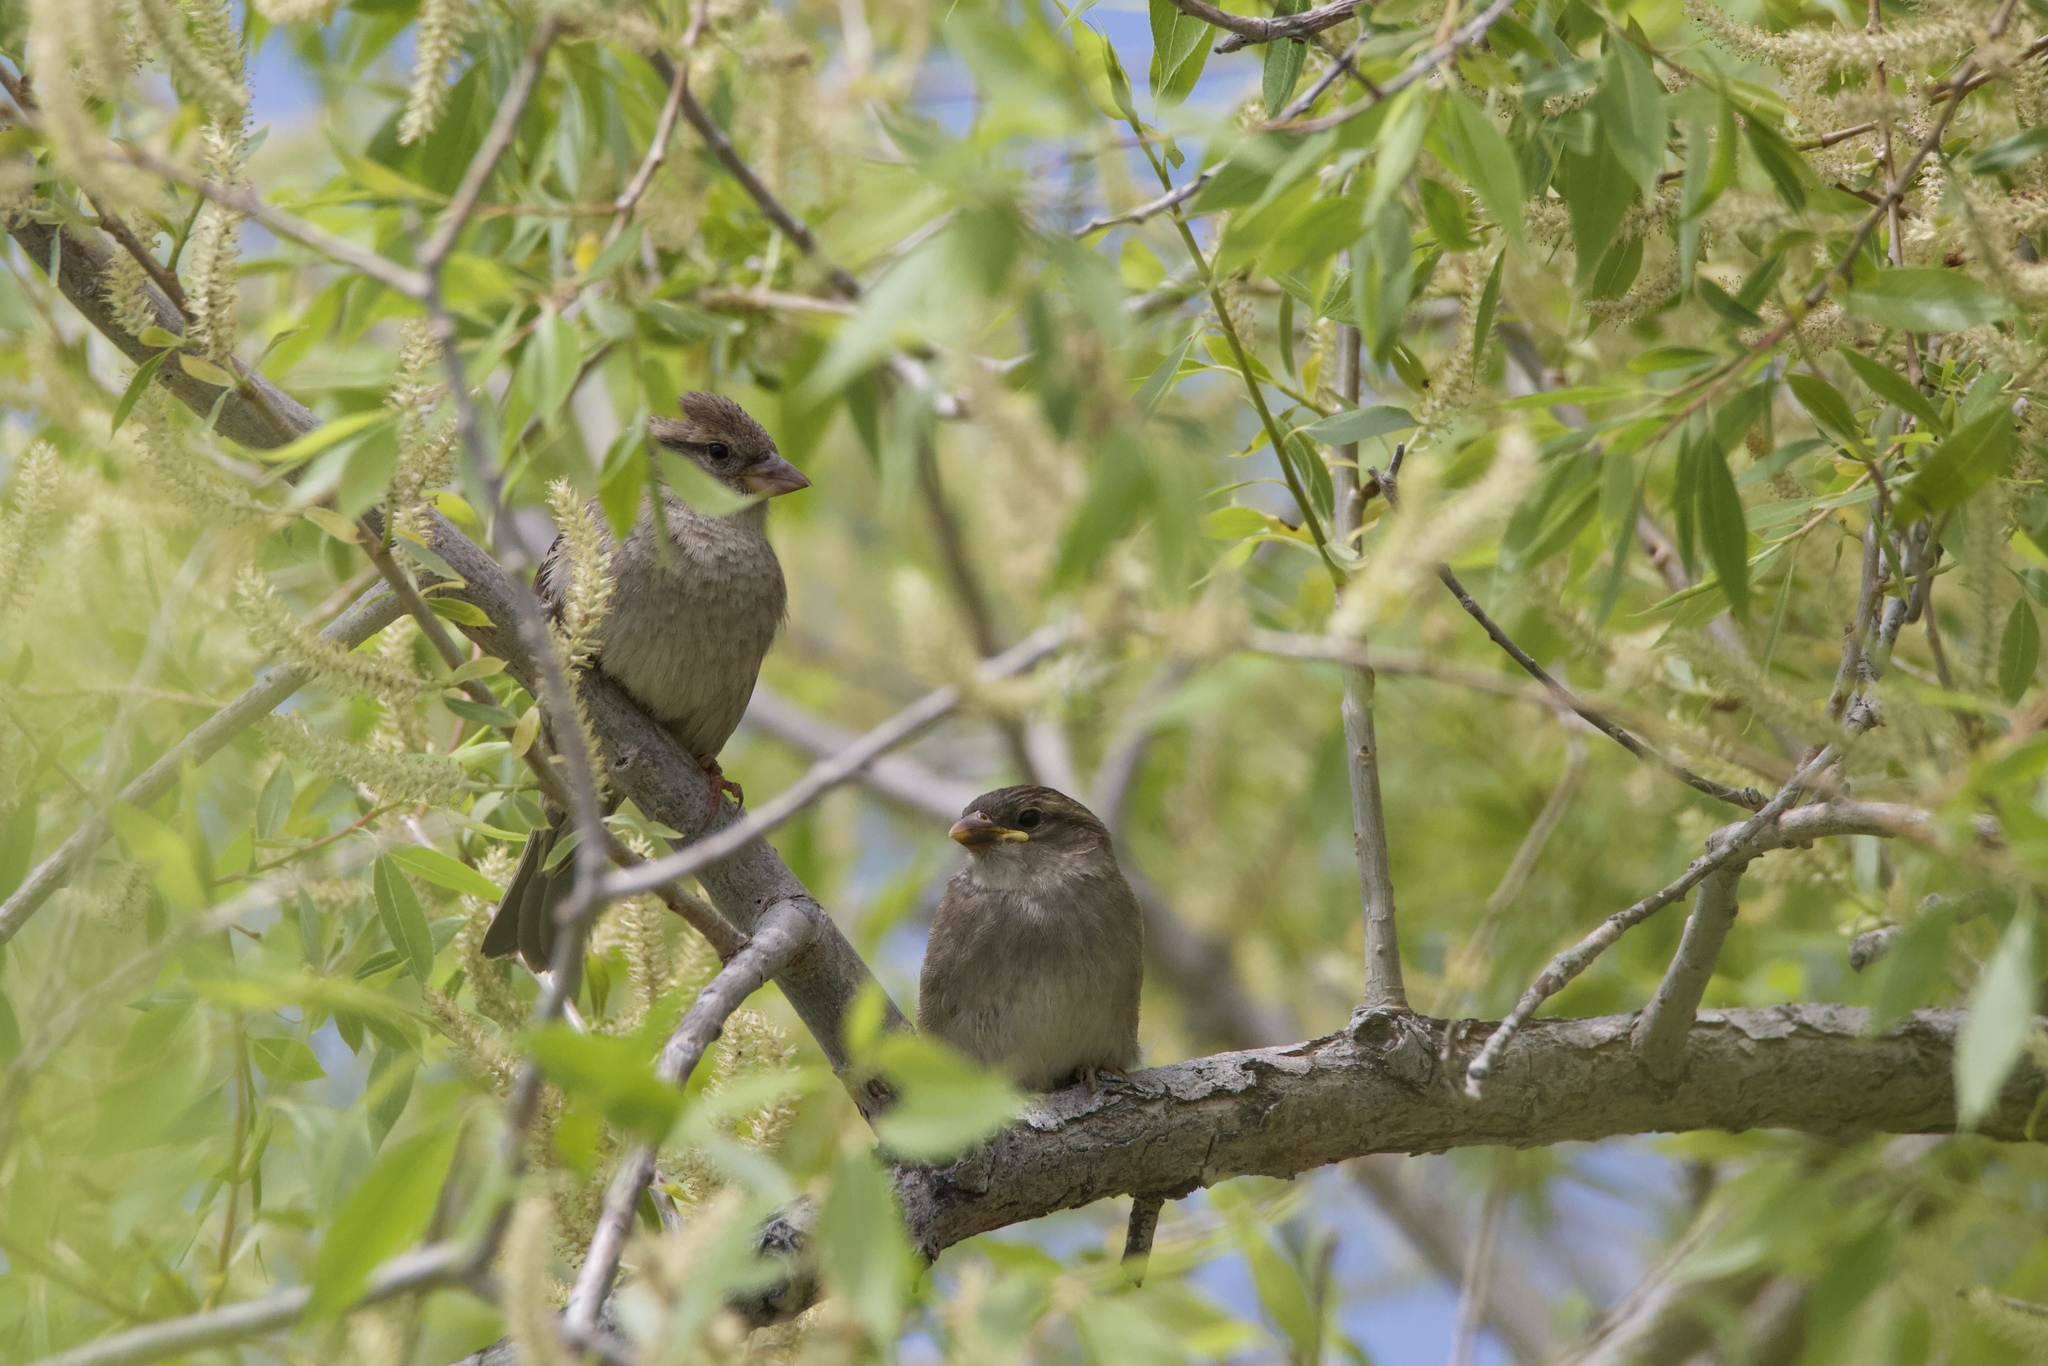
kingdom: Animalia
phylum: Chordata
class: Aves
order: Passeriformes
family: Passeridae
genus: Passer
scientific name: Passer domesticus
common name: House sparrow
